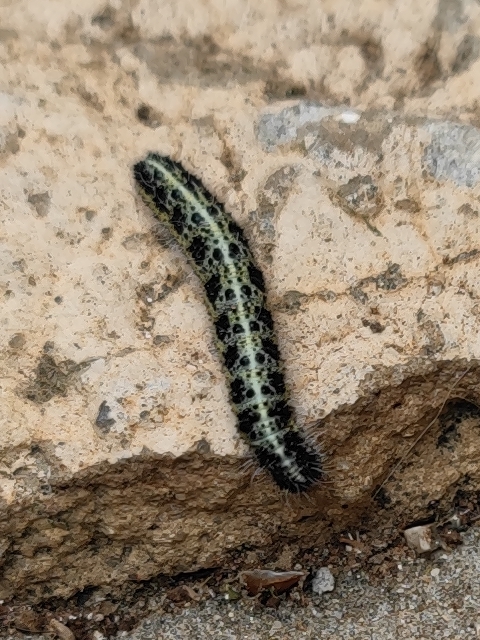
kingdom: Animalia
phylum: Arthropoda
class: Insecta
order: Lepidoptera
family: Pieridae
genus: Pieris
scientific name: Pieris brassicae
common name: Large white
